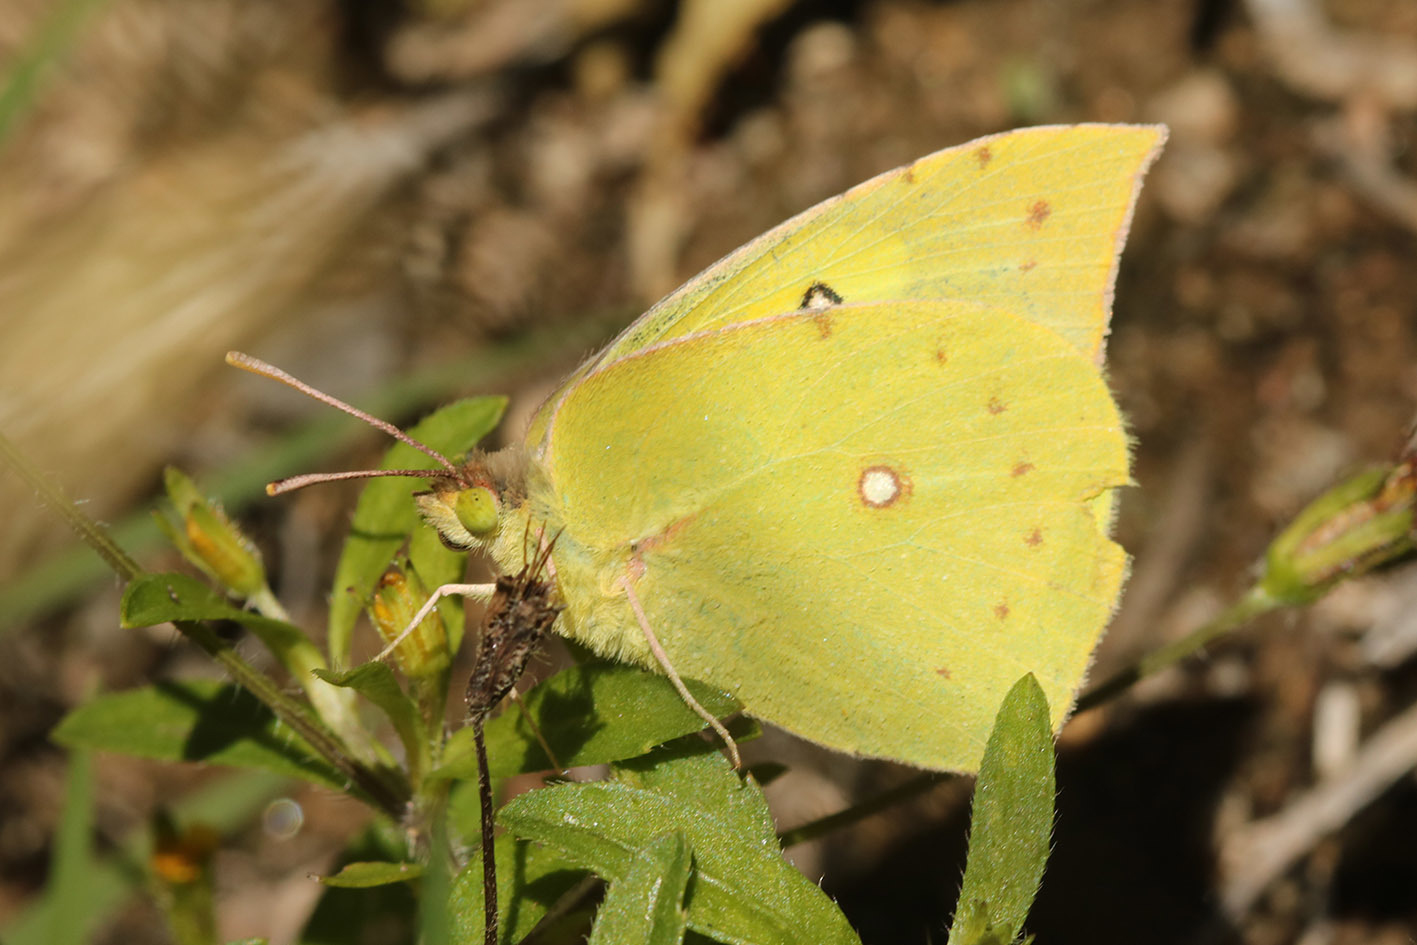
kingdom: Animalia
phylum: Arthropoda
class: Insecta
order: Lepidoptera
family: Pieridae
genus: Zerene
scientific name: Zerene cesonia
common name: Southern dogface
